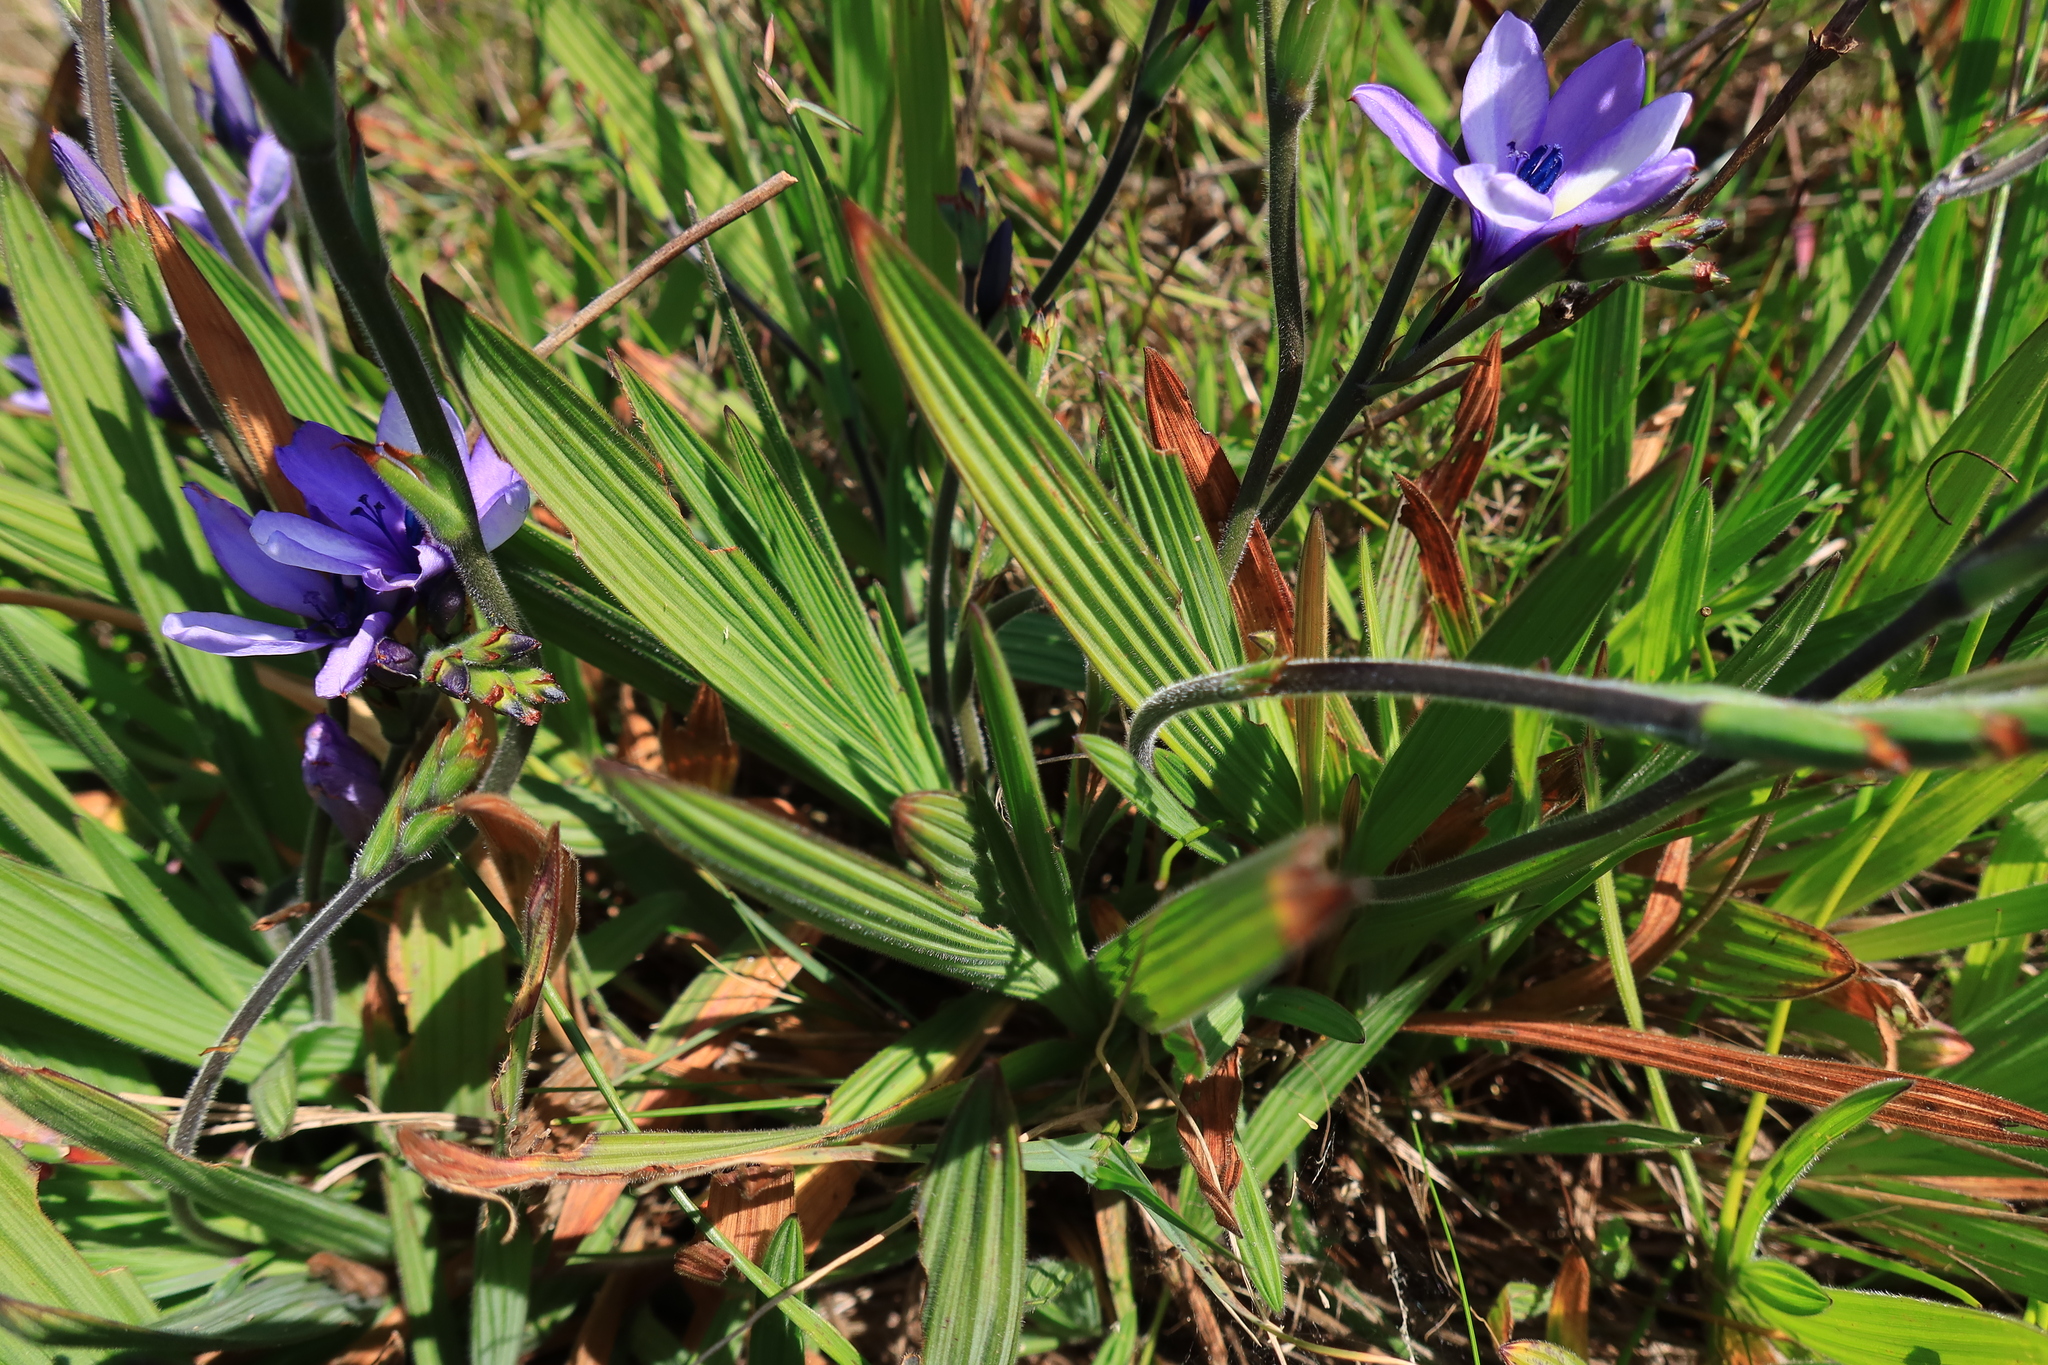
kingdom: Plantae
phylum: Tracheophyta
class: Liliopsida
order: Asparagales
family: Iridaceae
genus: Babiana
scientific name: Babiana fragrans
